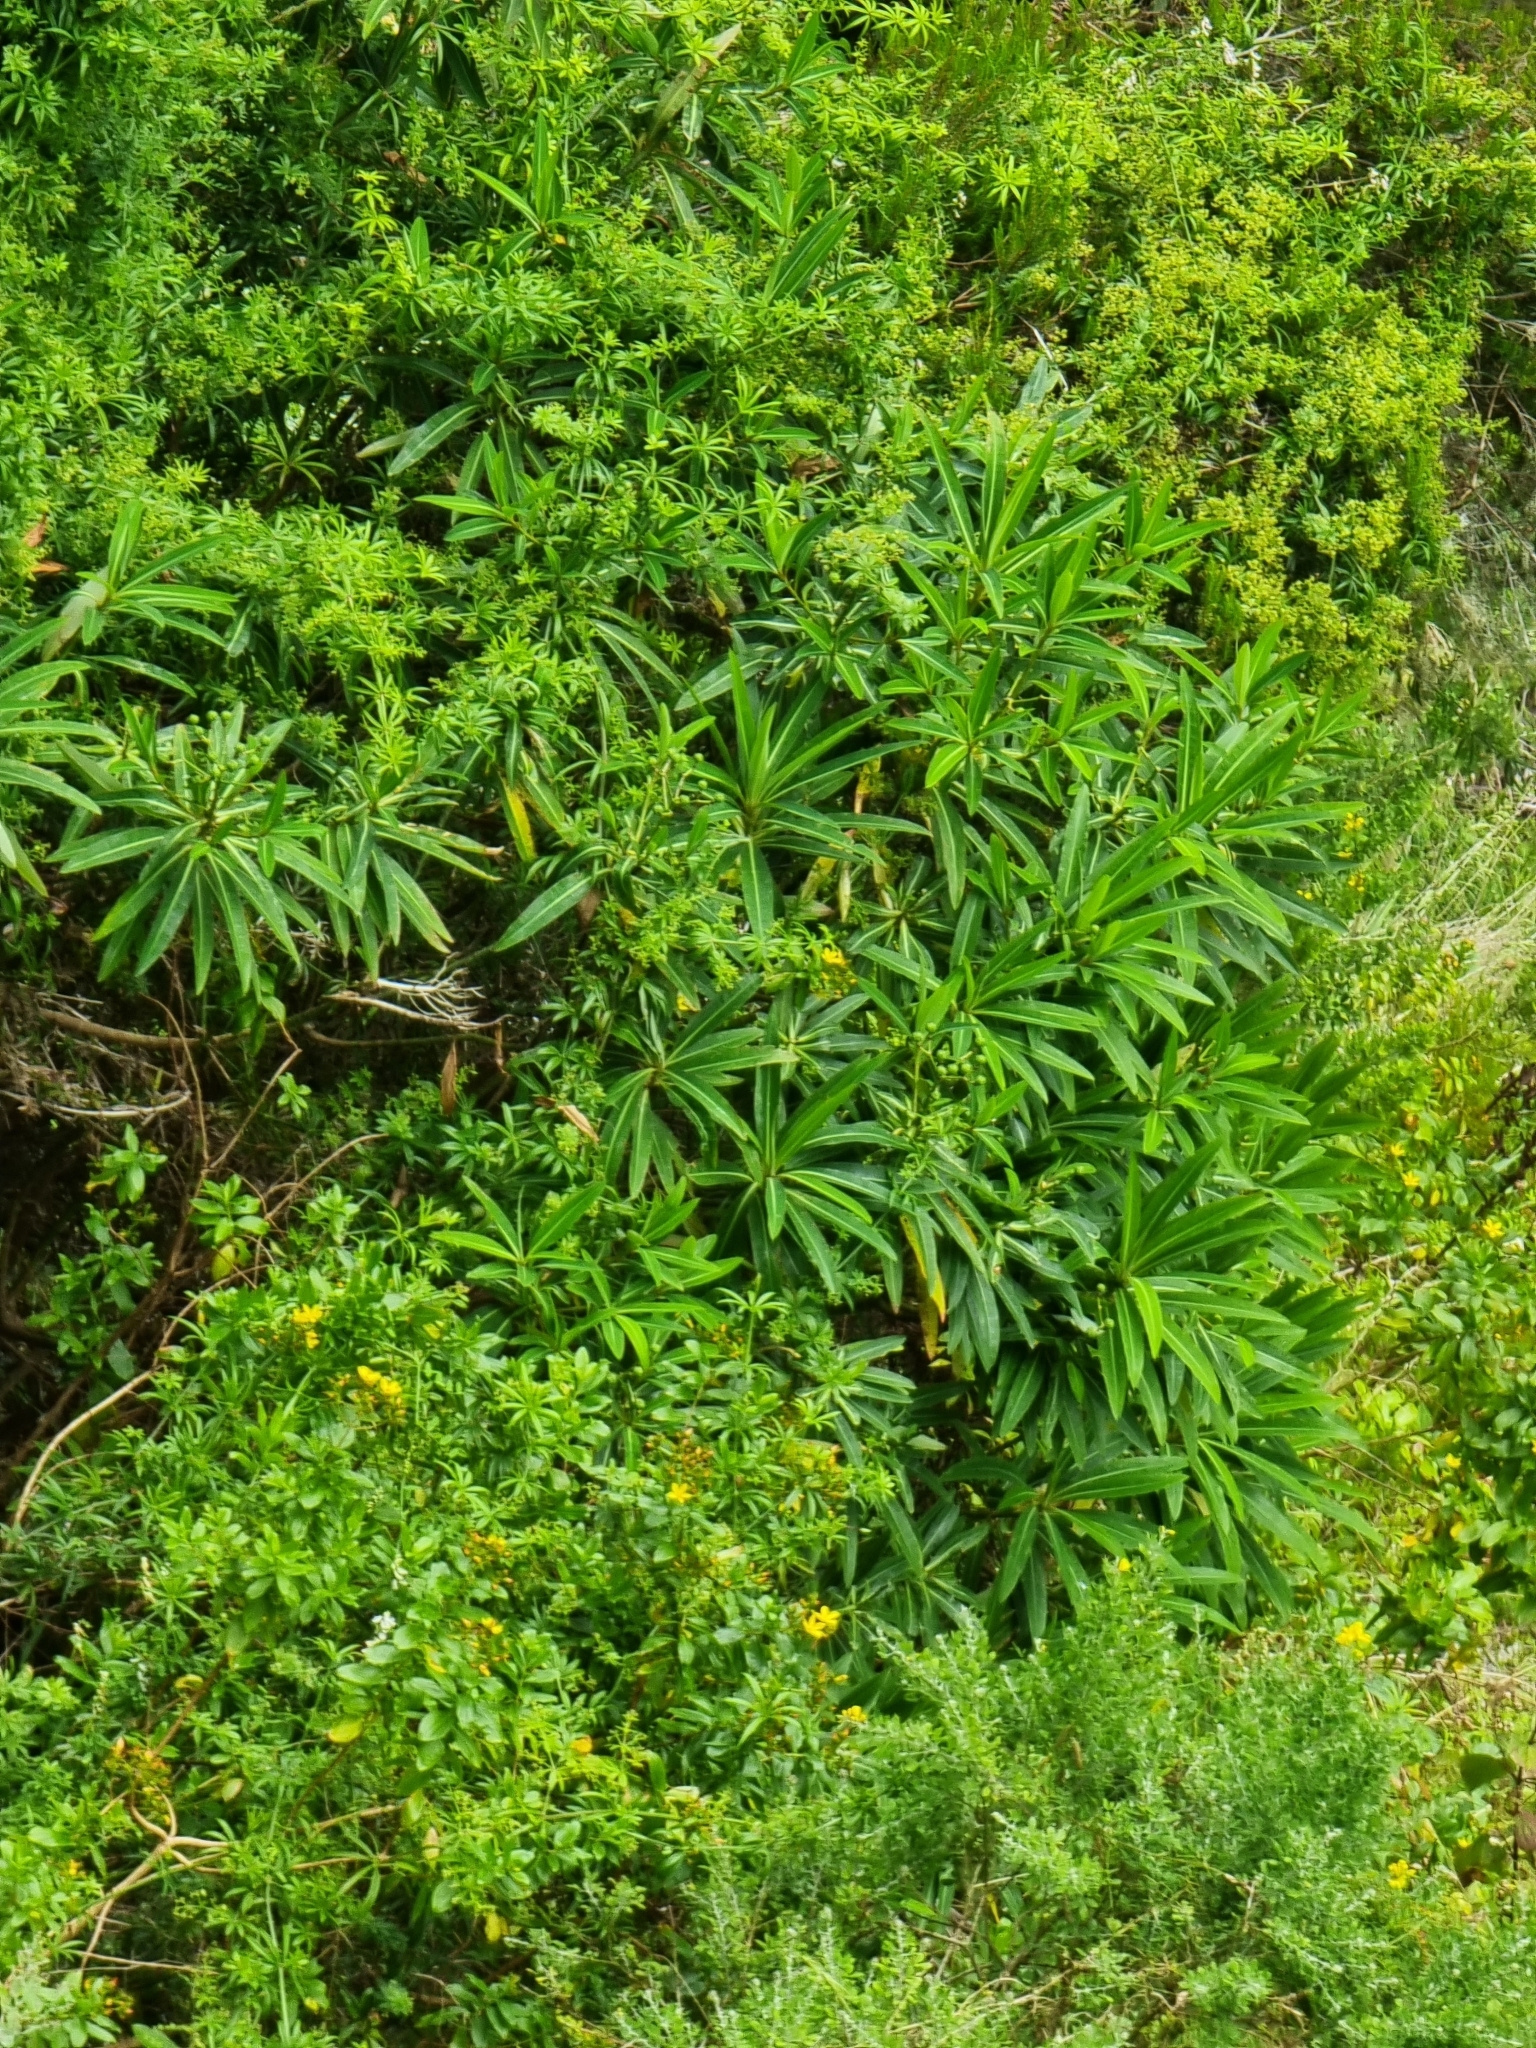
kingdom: Plantae
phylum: Tracheophyta
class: Magnoliopsida
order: Malpighiales
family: Euphorbiaceae
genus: Euphorbia
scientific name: Euphorbia mellifera
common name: Canary spurge
